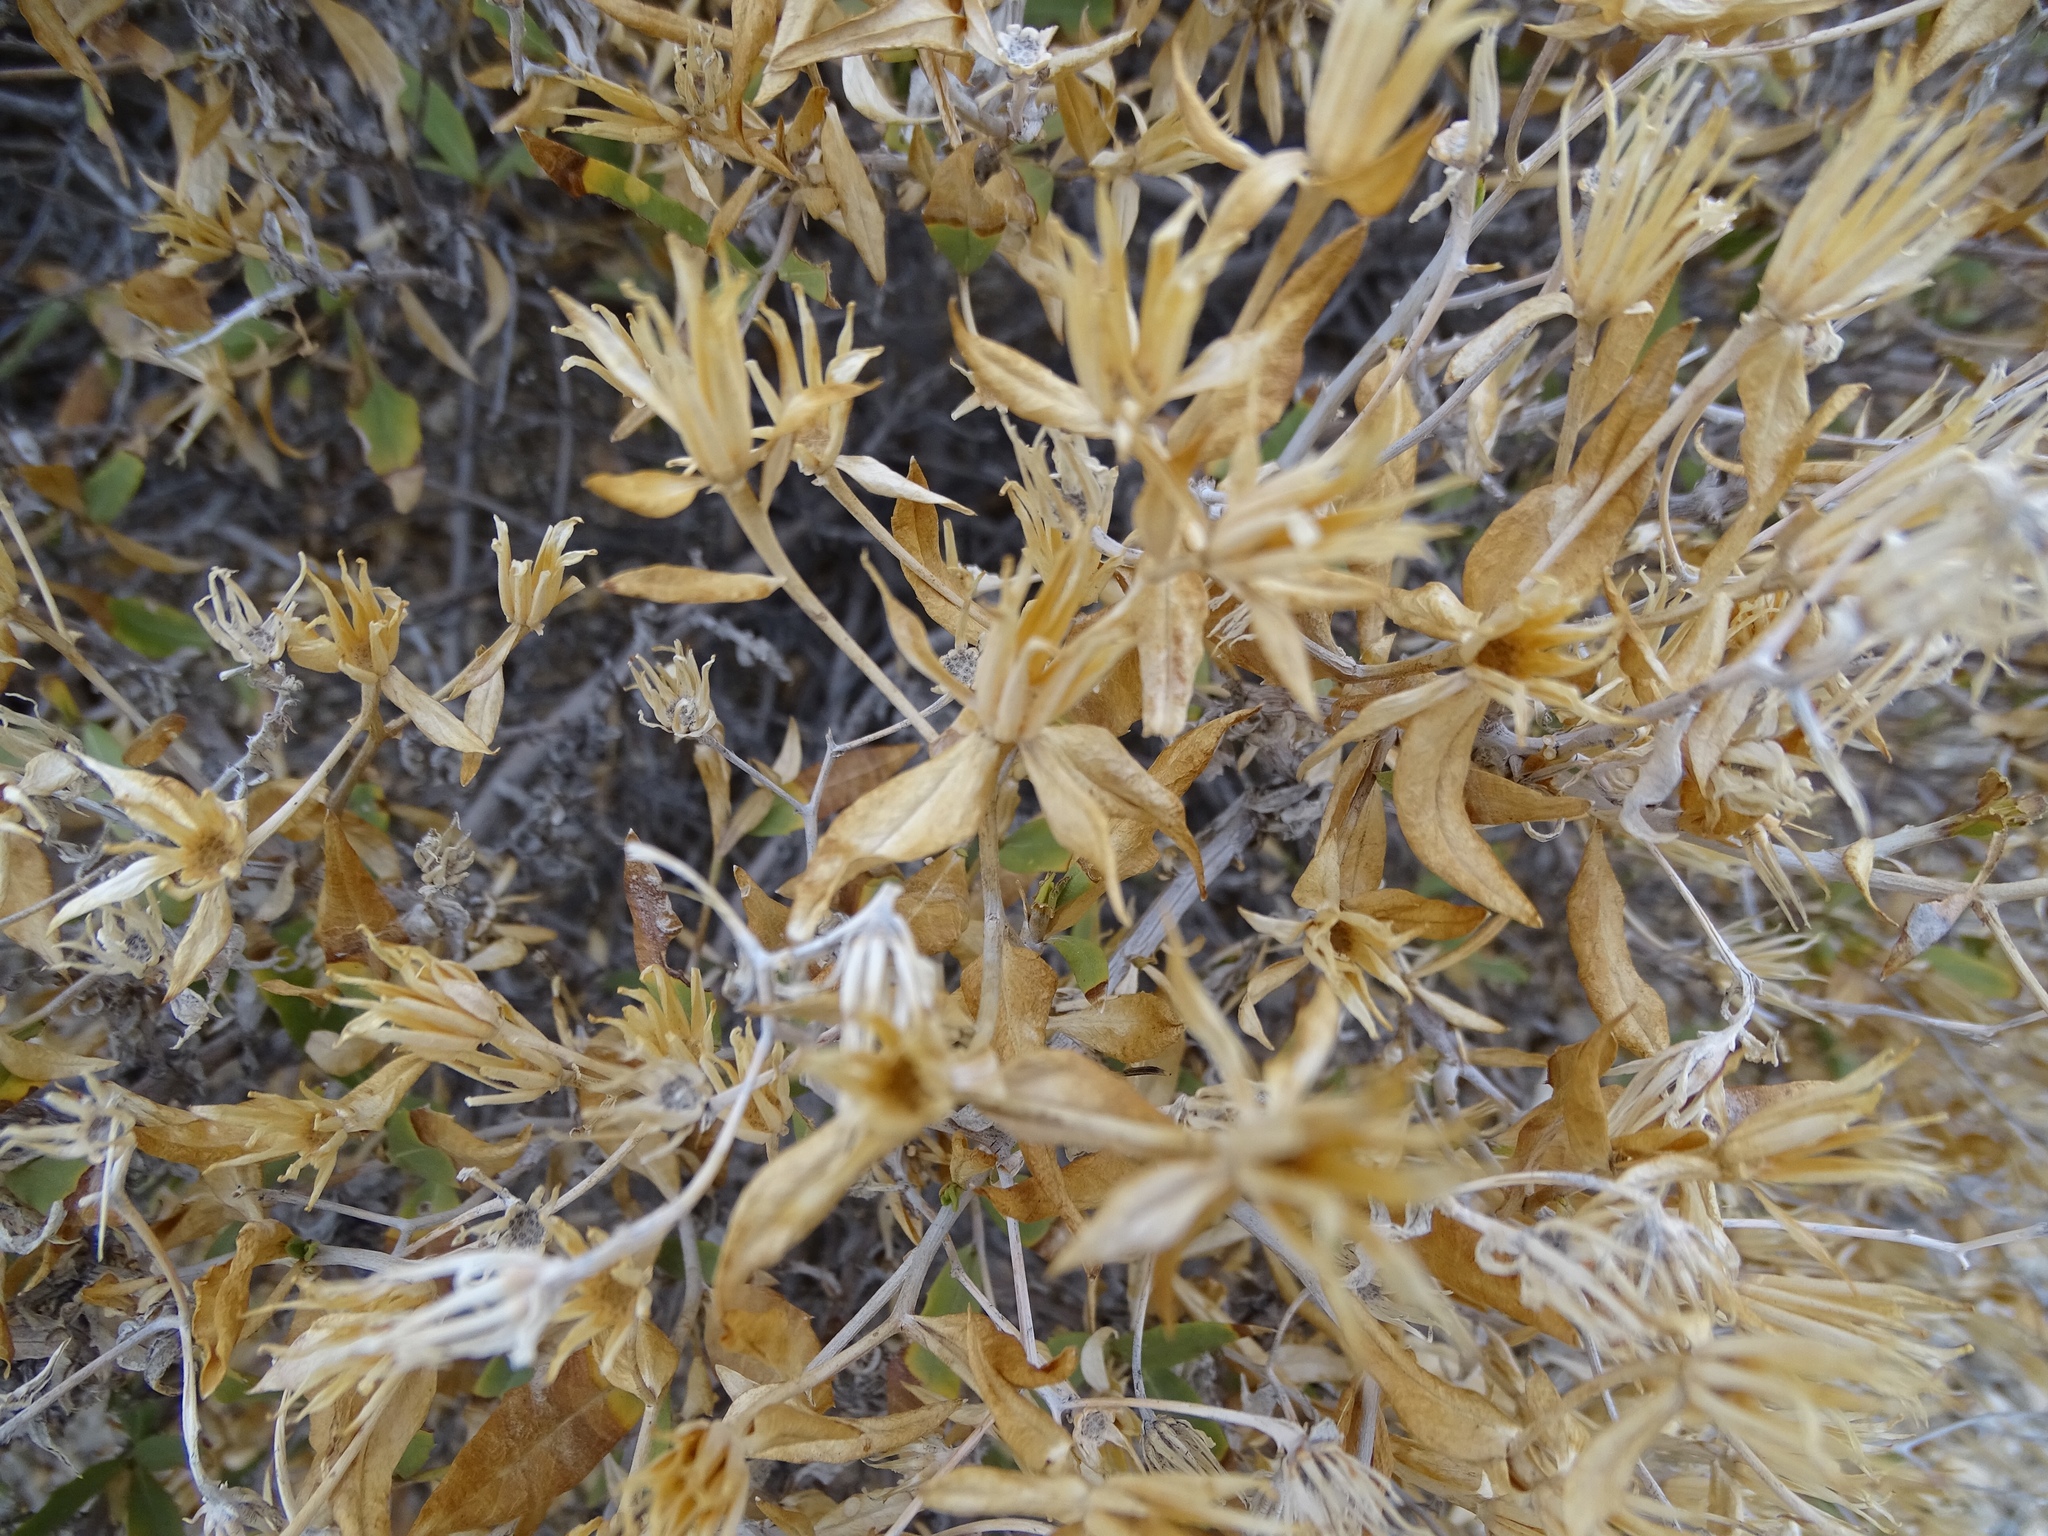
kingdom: Plantae
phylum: Tracheophyta
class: Magnoliopsida
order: Asterales
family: Asteraceae
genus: Trixis
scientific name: Trixis californica
